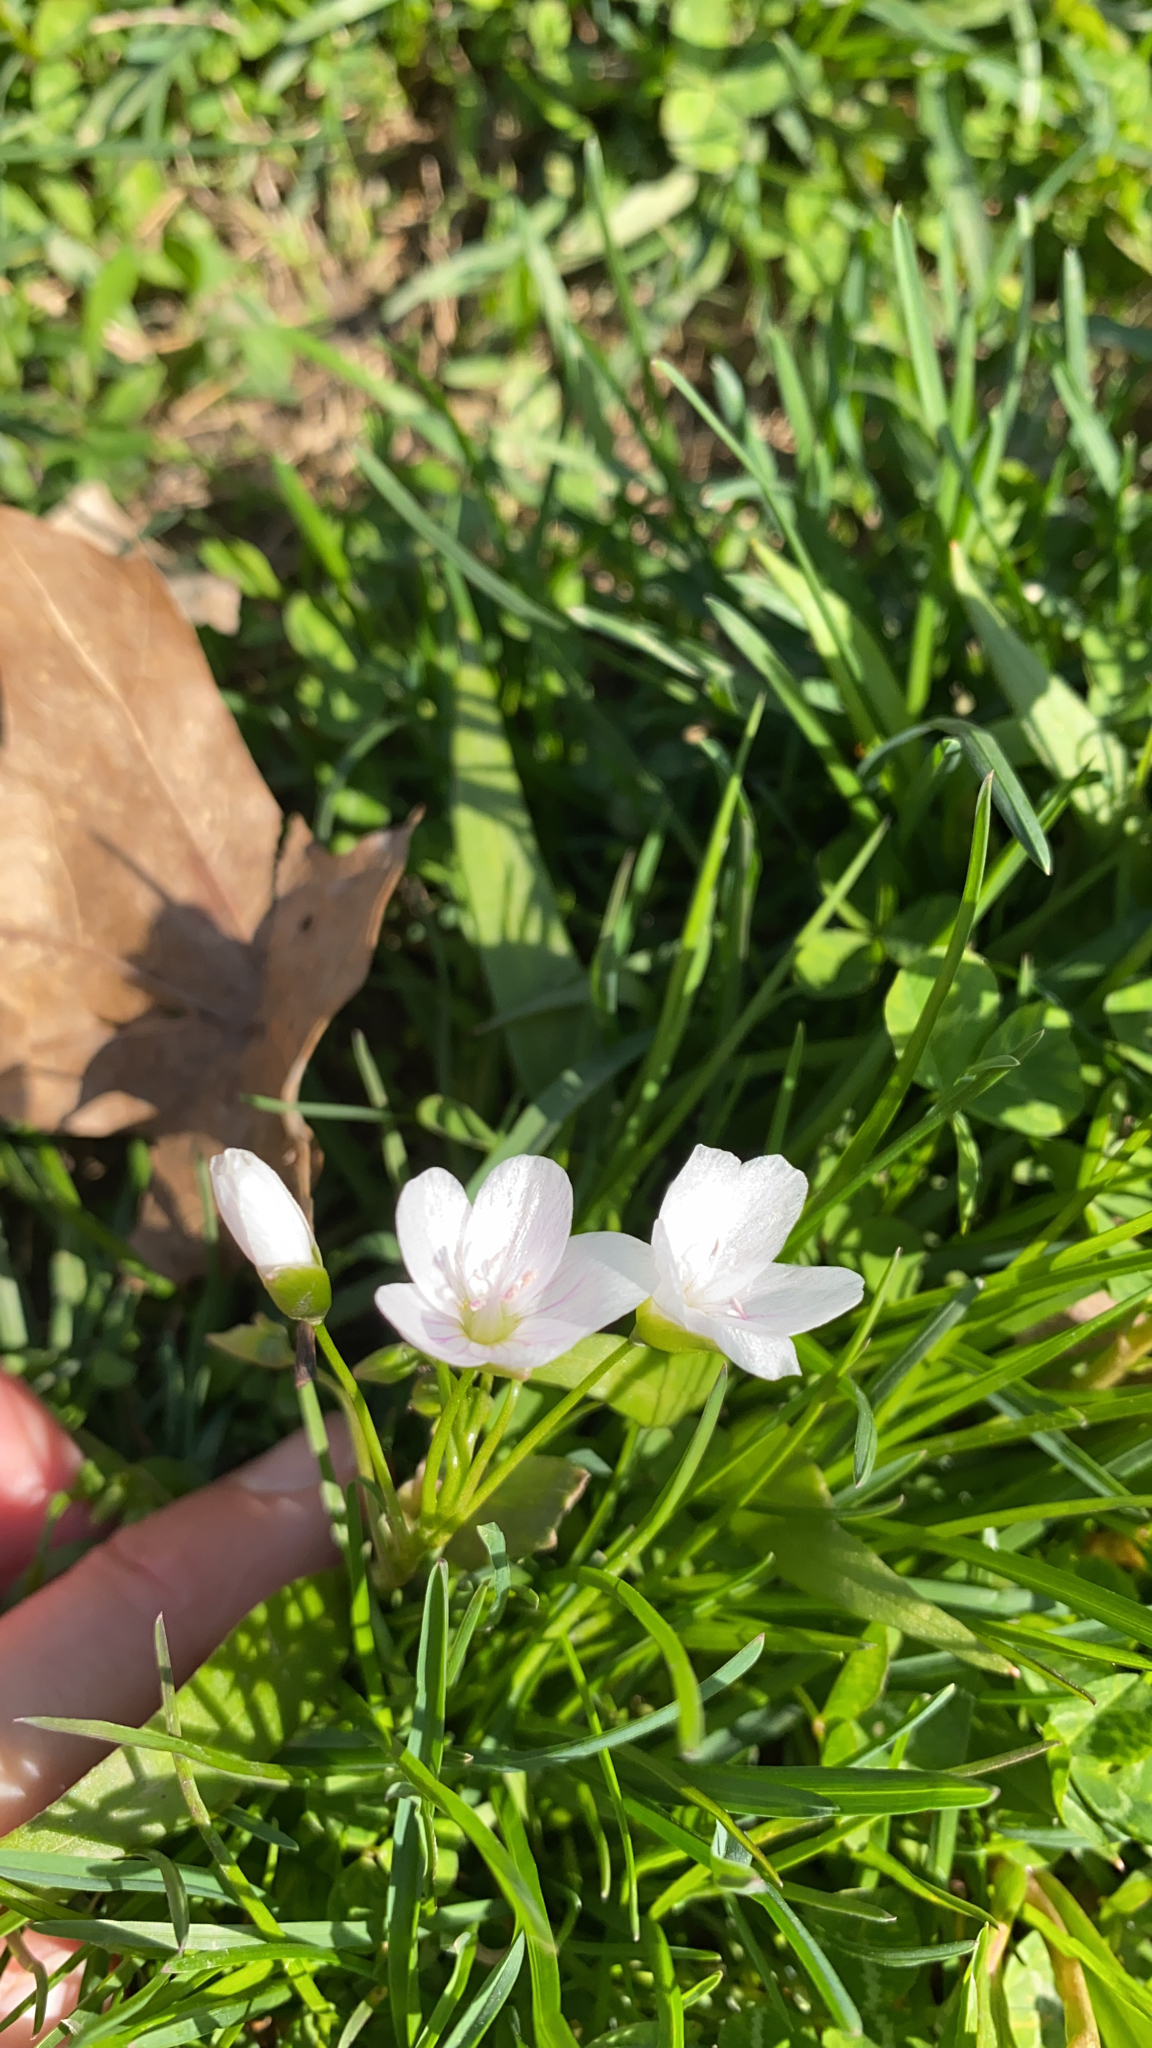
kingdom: Plantae
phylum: Tracheophyta
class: Magnoliopsida
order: Caryophyllales
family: Montiaceae
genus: Claytonia
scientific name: Claytonia virginica
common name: Virginia springbeauty
